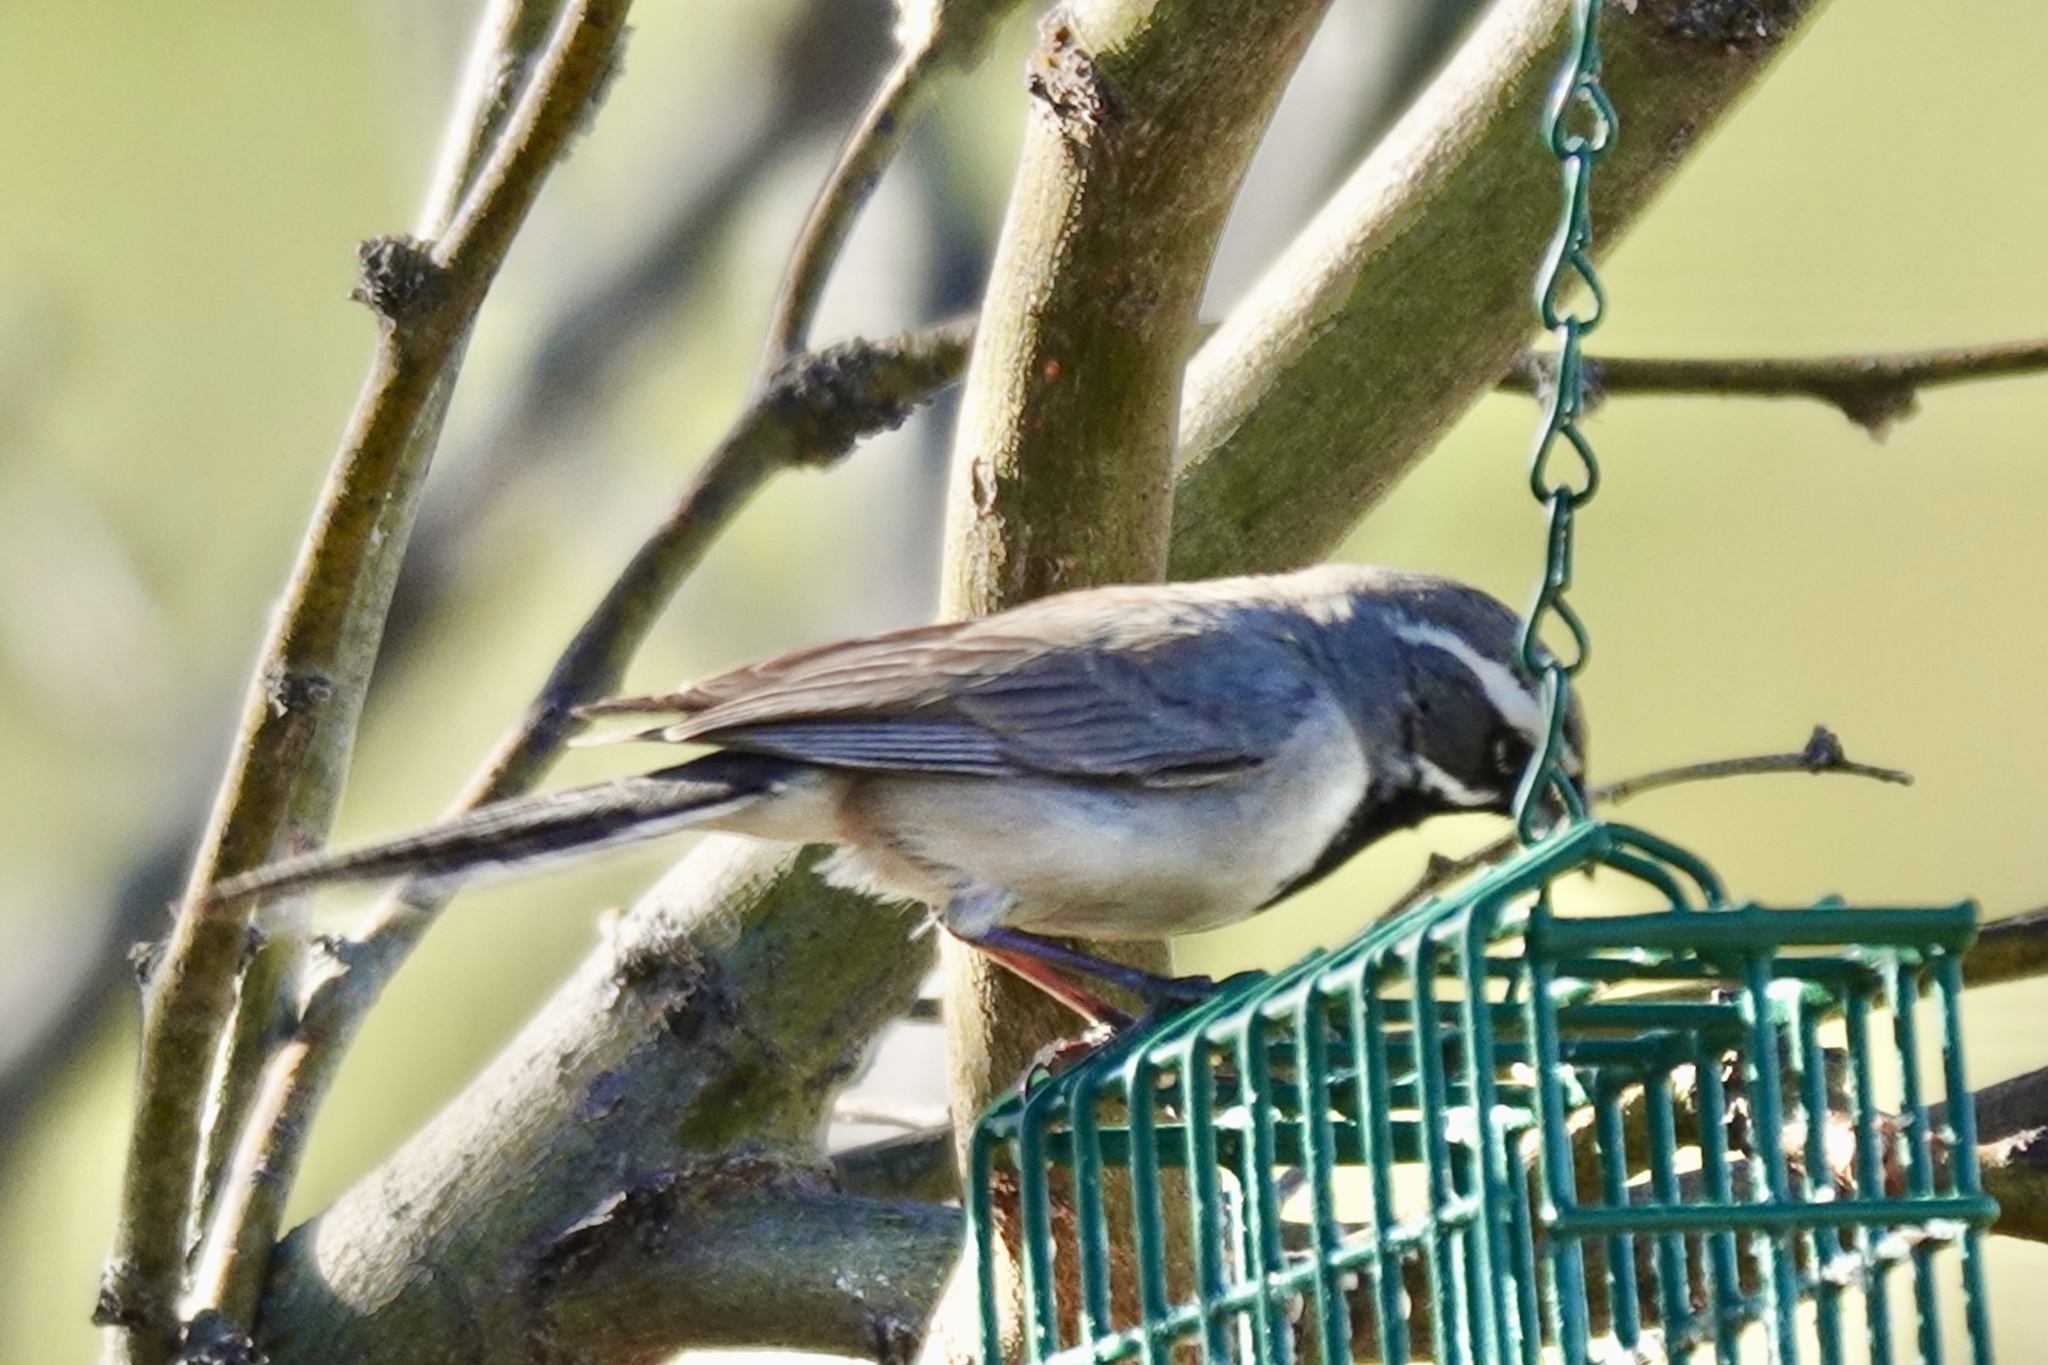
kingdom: Animalia
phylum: Chordata
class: Aves
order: Passeriformes
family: Passerellidae
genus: Amphispiza
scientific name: Amphispiza bilineata
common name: Black-throated sparrow
